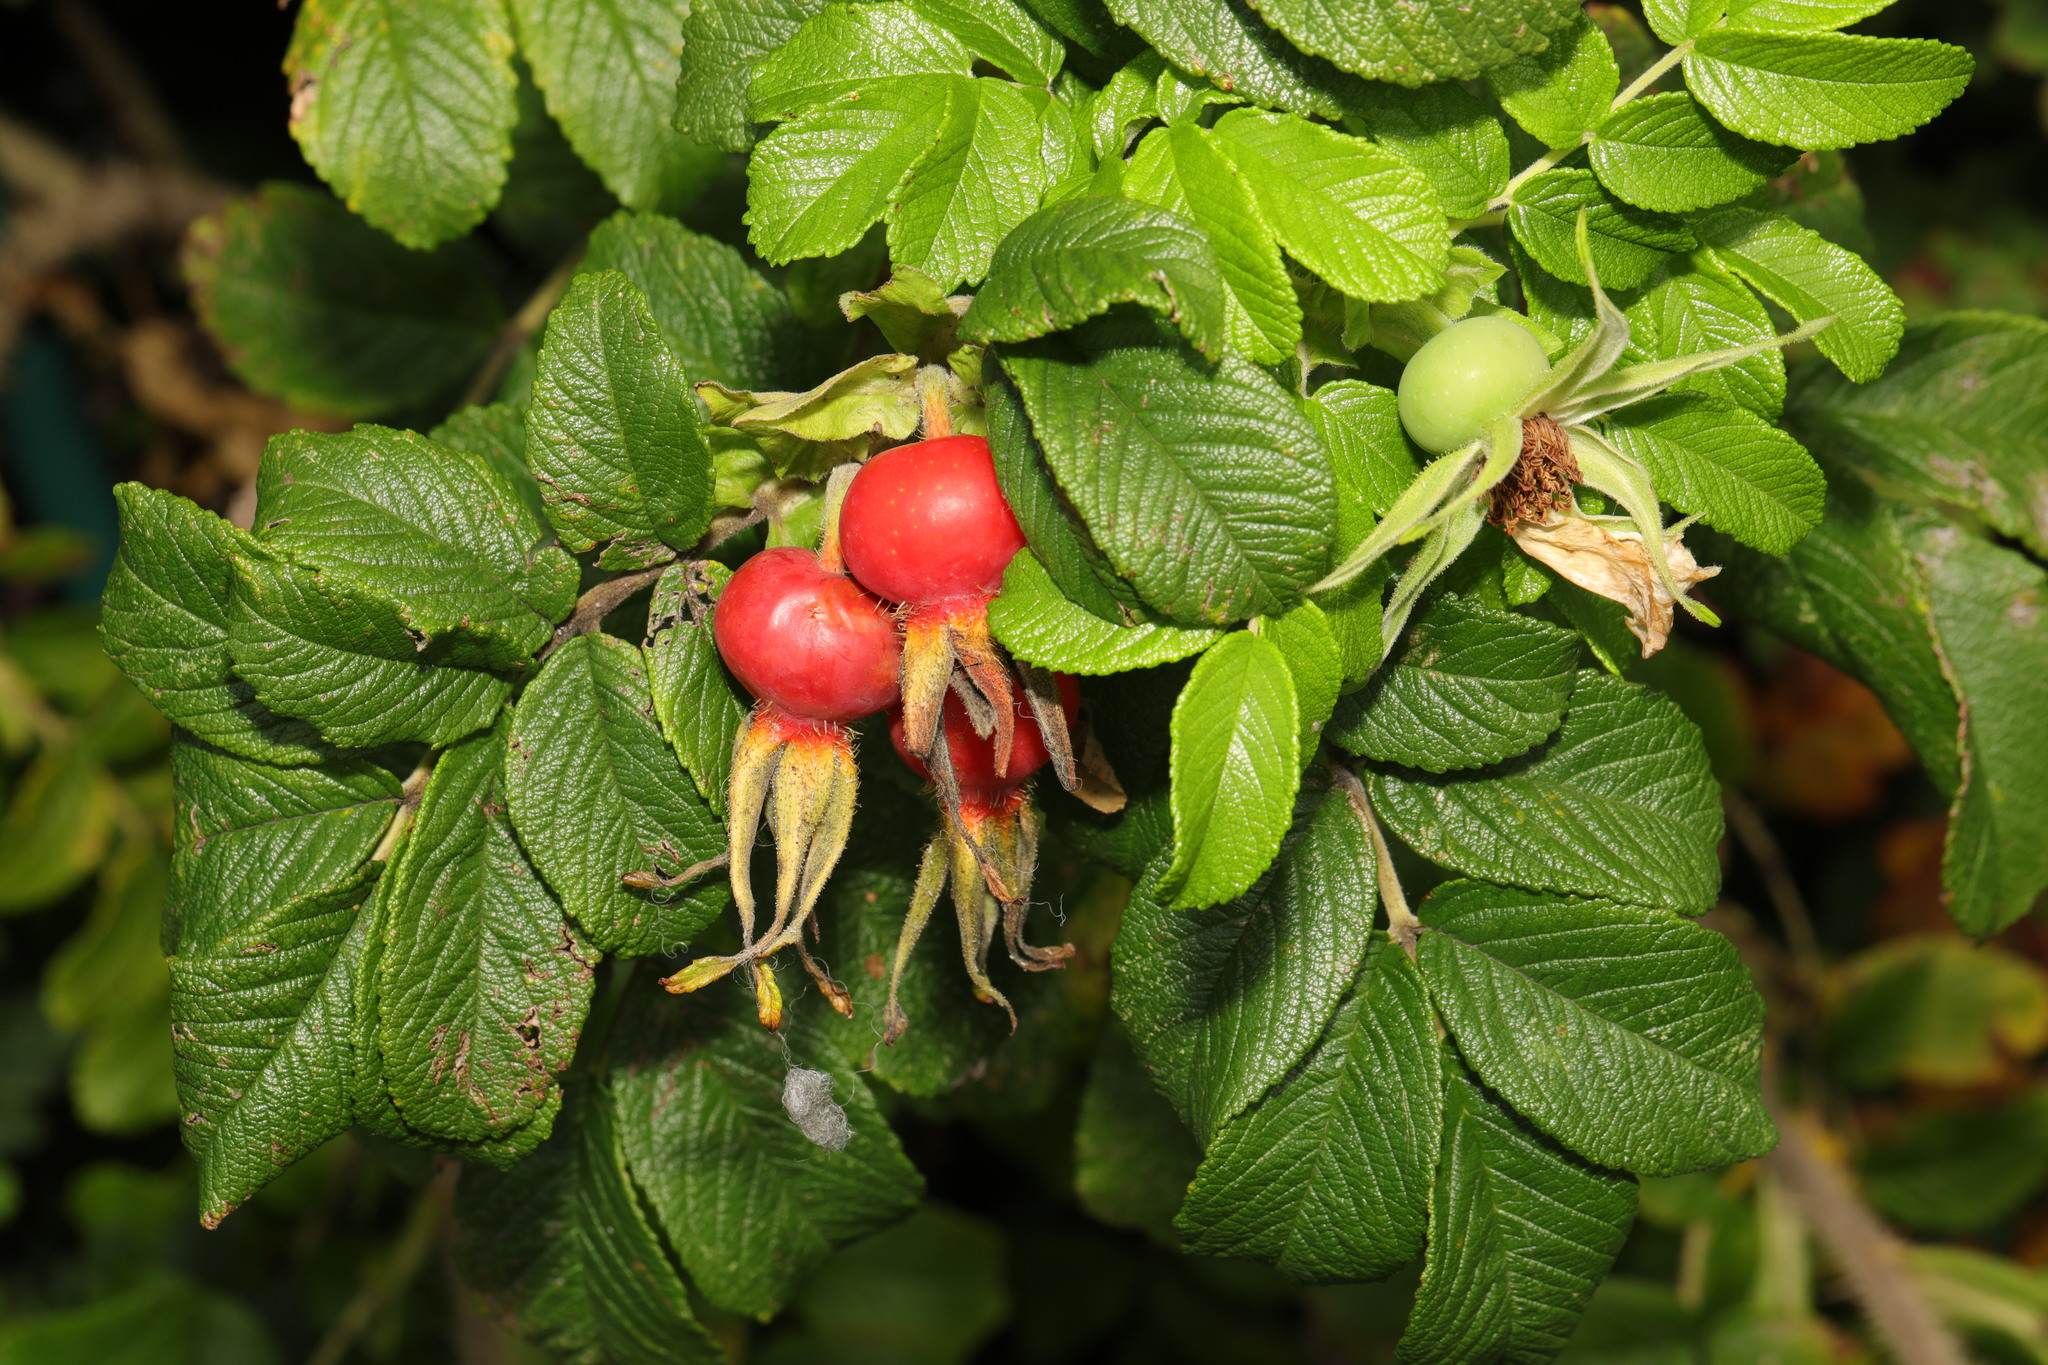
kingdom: Plantae
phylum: Tracheophyta
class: Magnoliopsida
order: Rosales
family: Rosaceae
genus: Rosa
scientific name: Rosa rugosa
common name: Japanese rose
